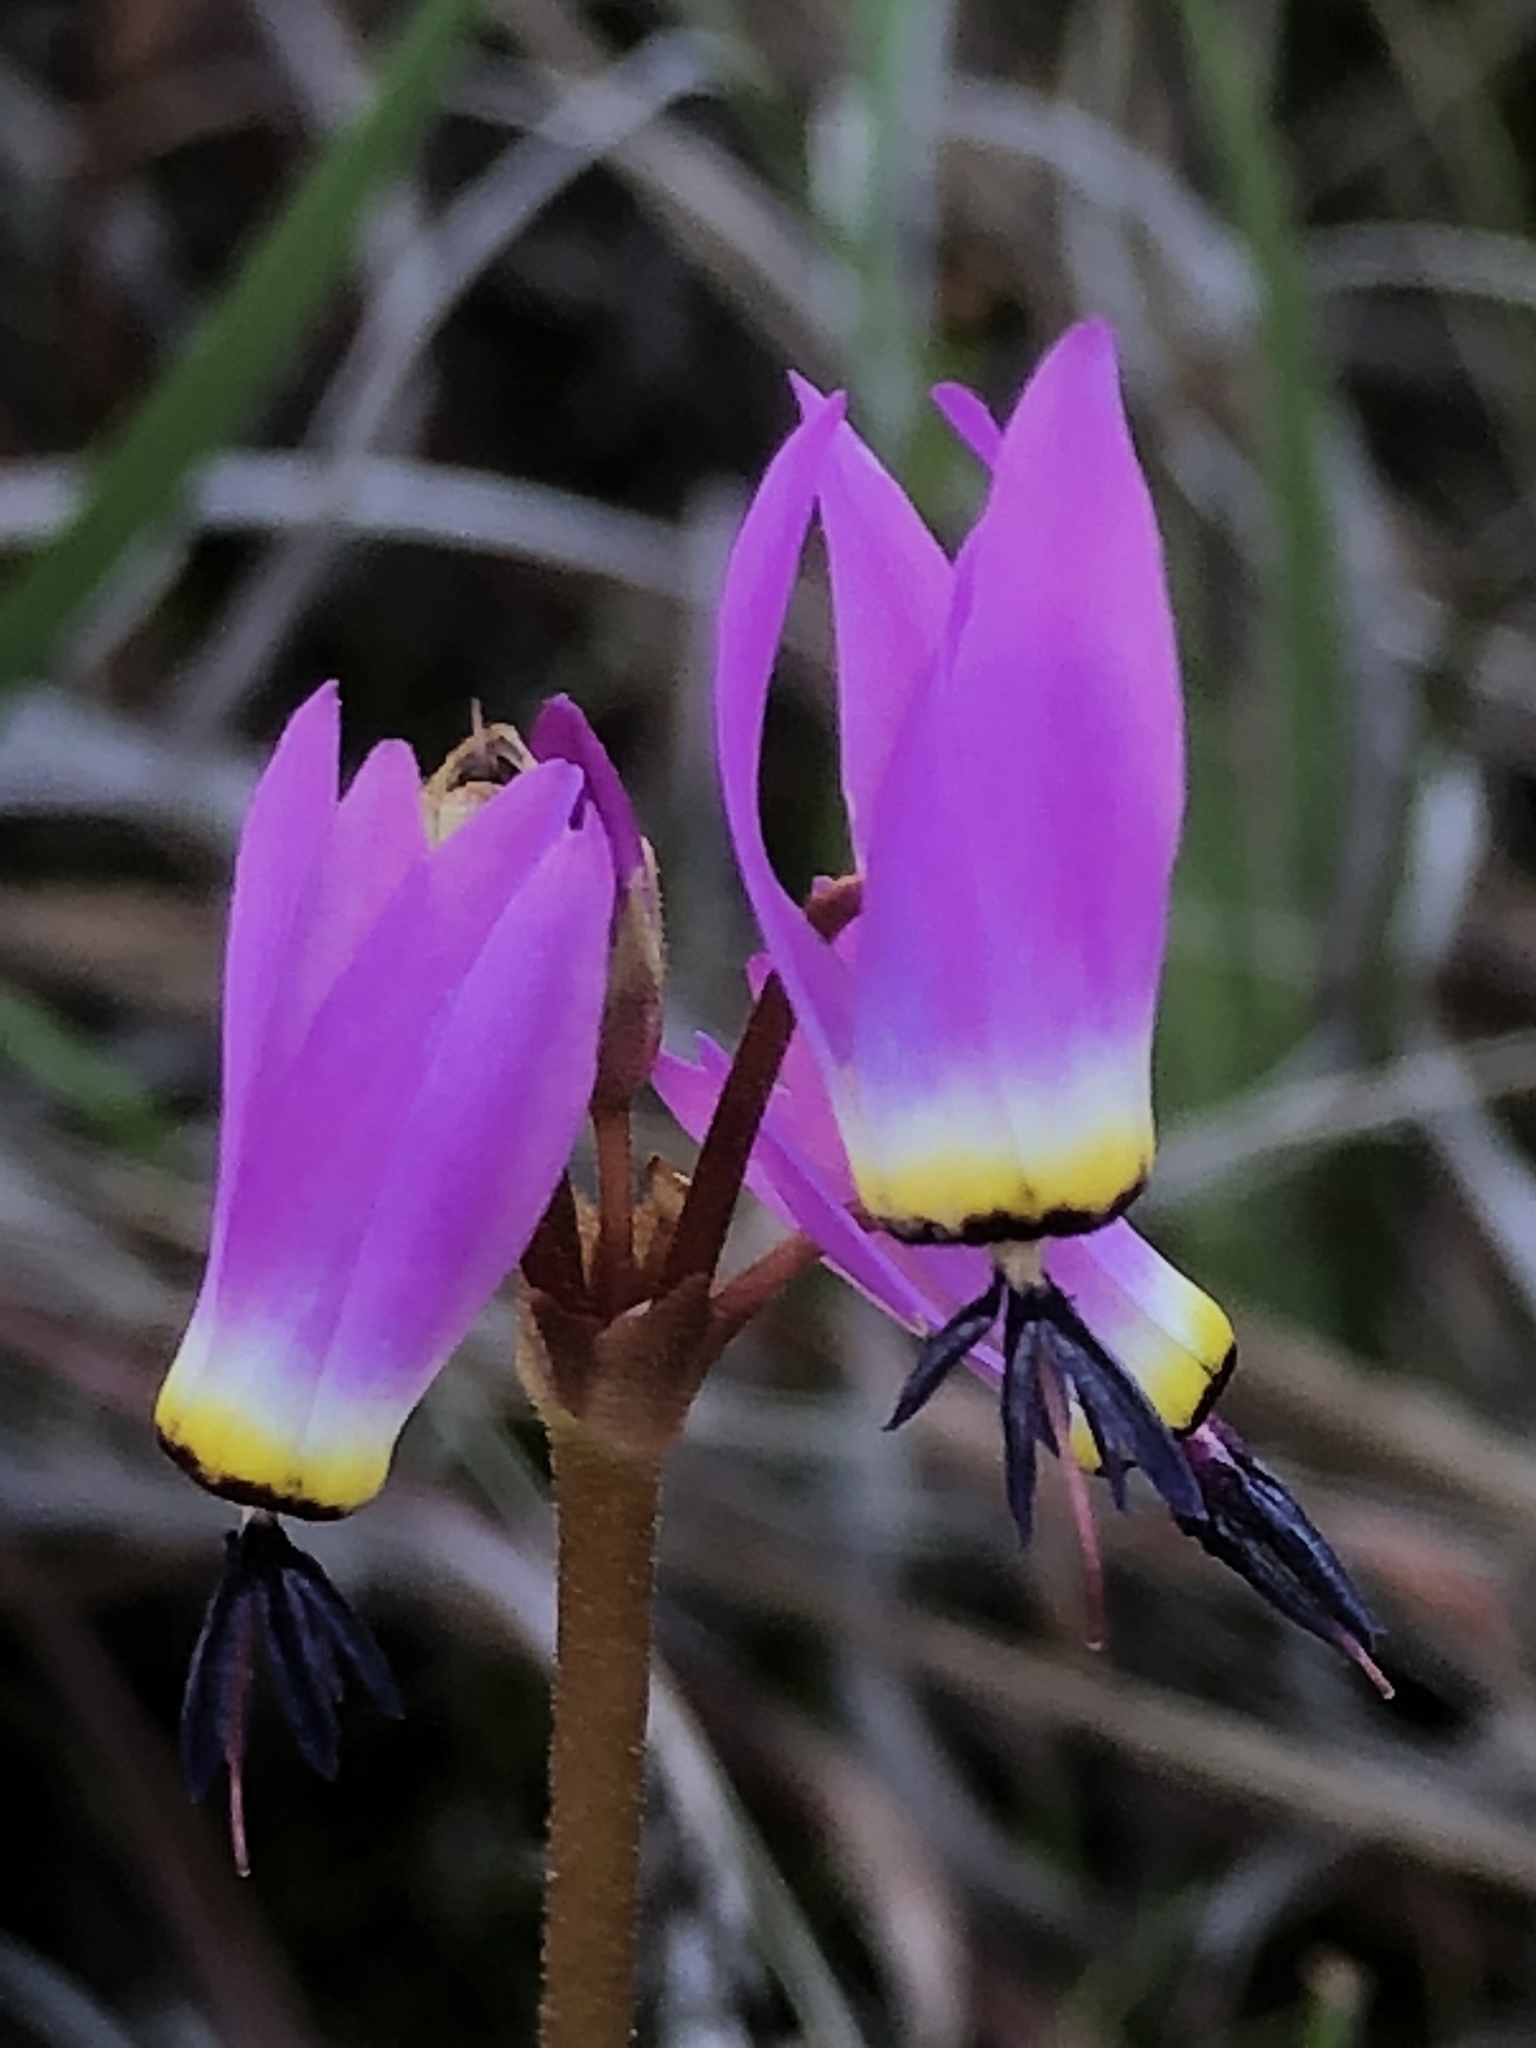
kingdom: Plantae
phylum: Tracheophyta
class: Magnoliopsida
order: Ericales
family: Primulaceae
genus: Dodecatheon
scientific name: Dodecatheon hendersonii
